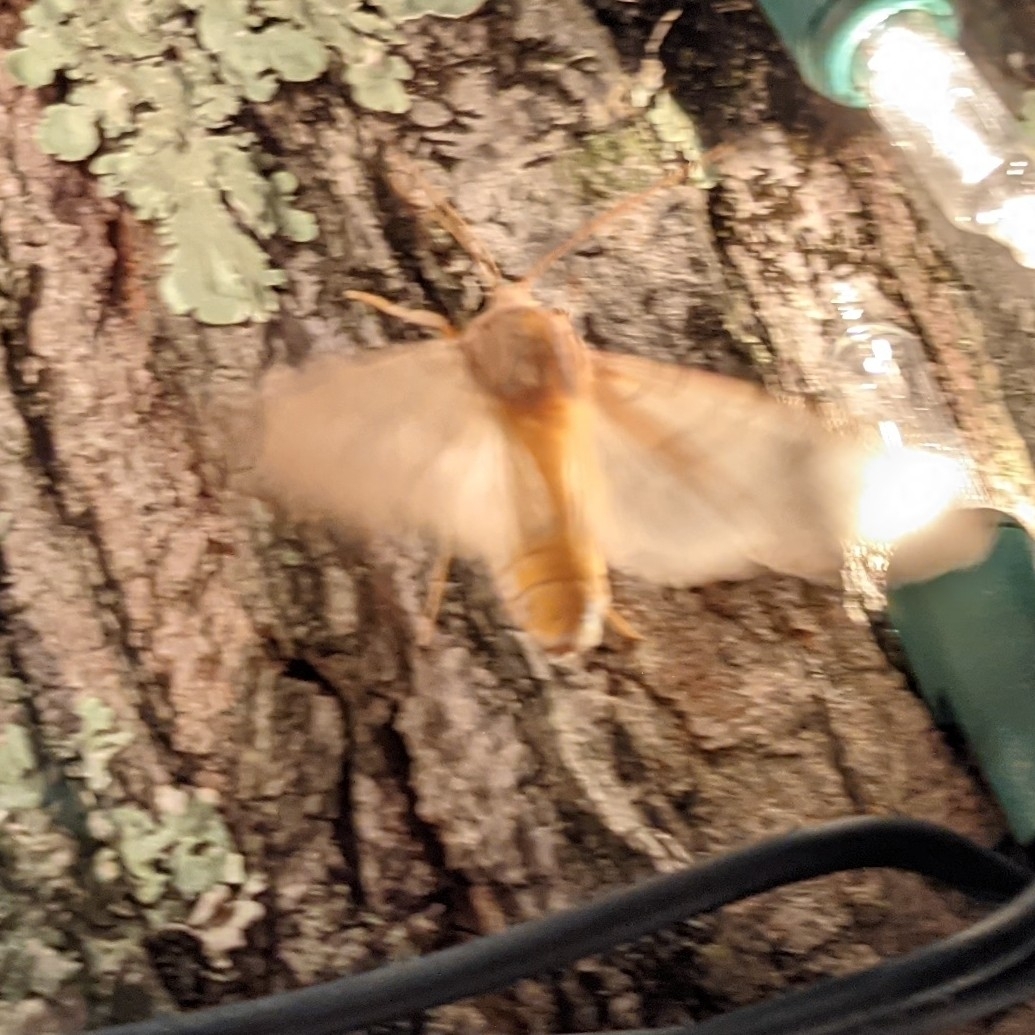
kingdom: Animalia
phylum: Arthropoda
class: Insecta
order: Lepidoptera
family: Erebidae
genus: Halysidota
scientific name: Halysidota
